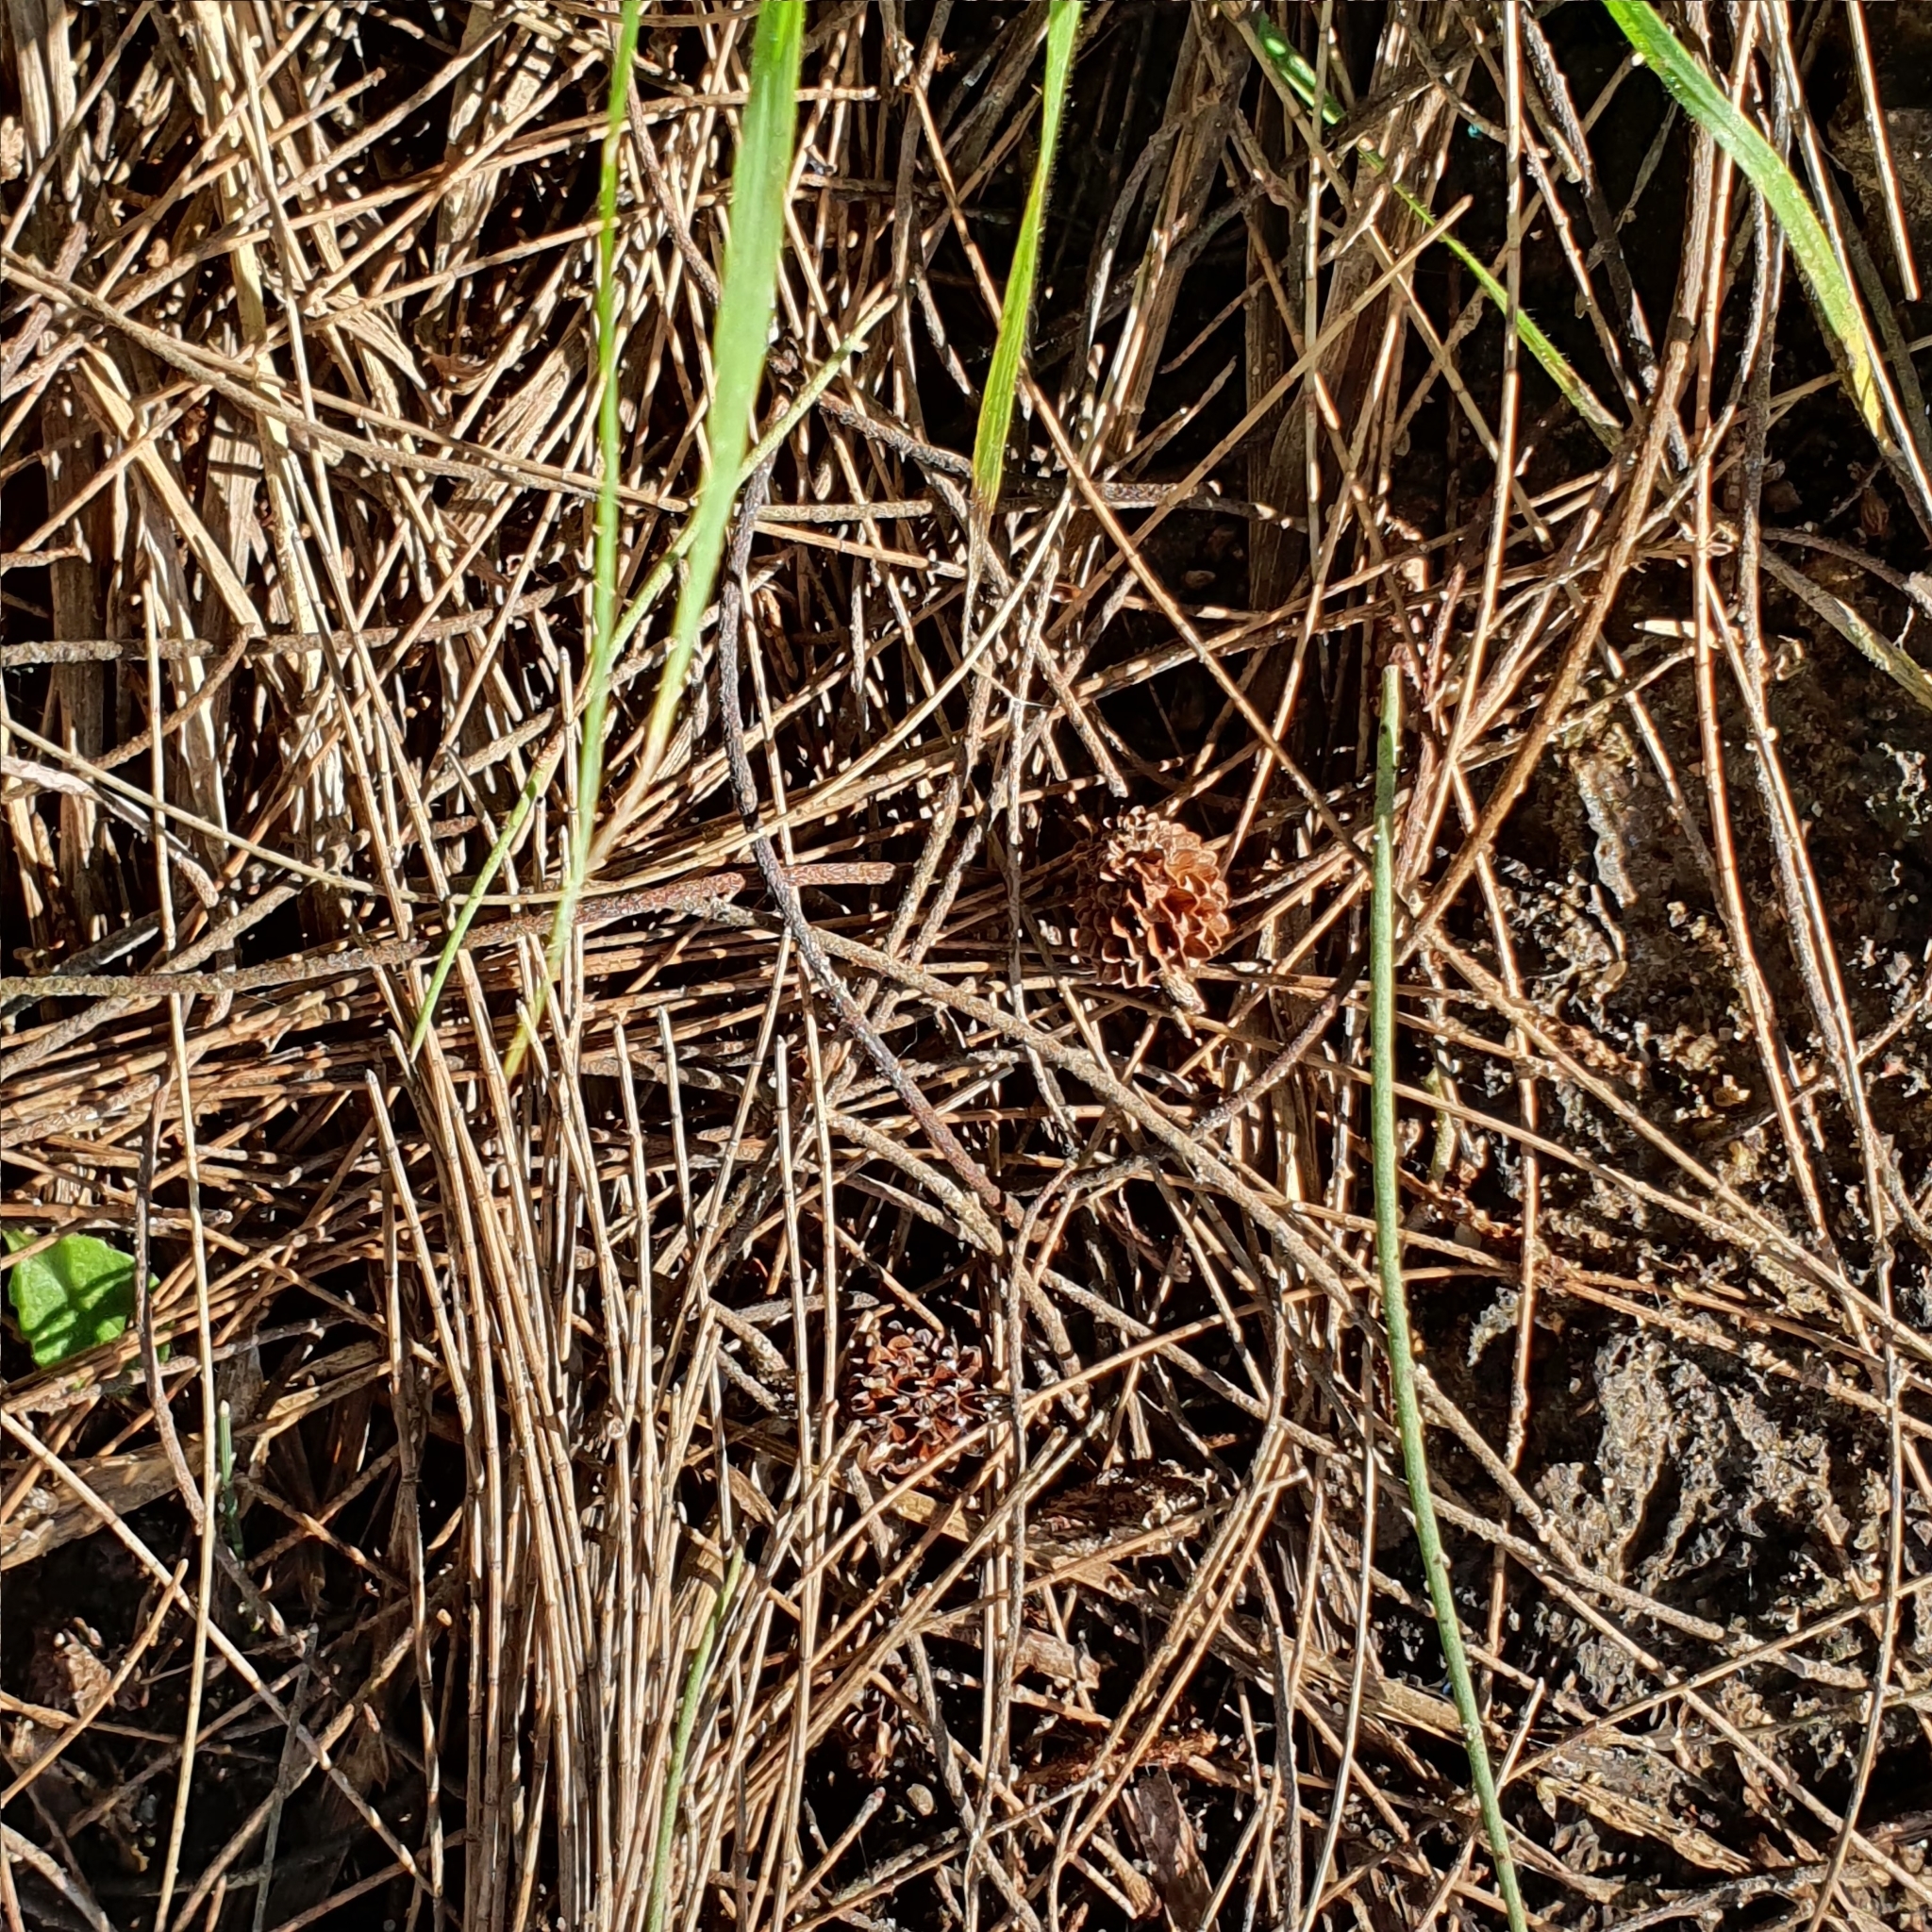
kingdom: Plantae
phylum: Tracheophyta
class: Magnoliopsida
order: Fagales
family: Casuarinaceae
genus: Casuarina
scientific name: Casuarina cunninghamiana
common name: River sheoak
